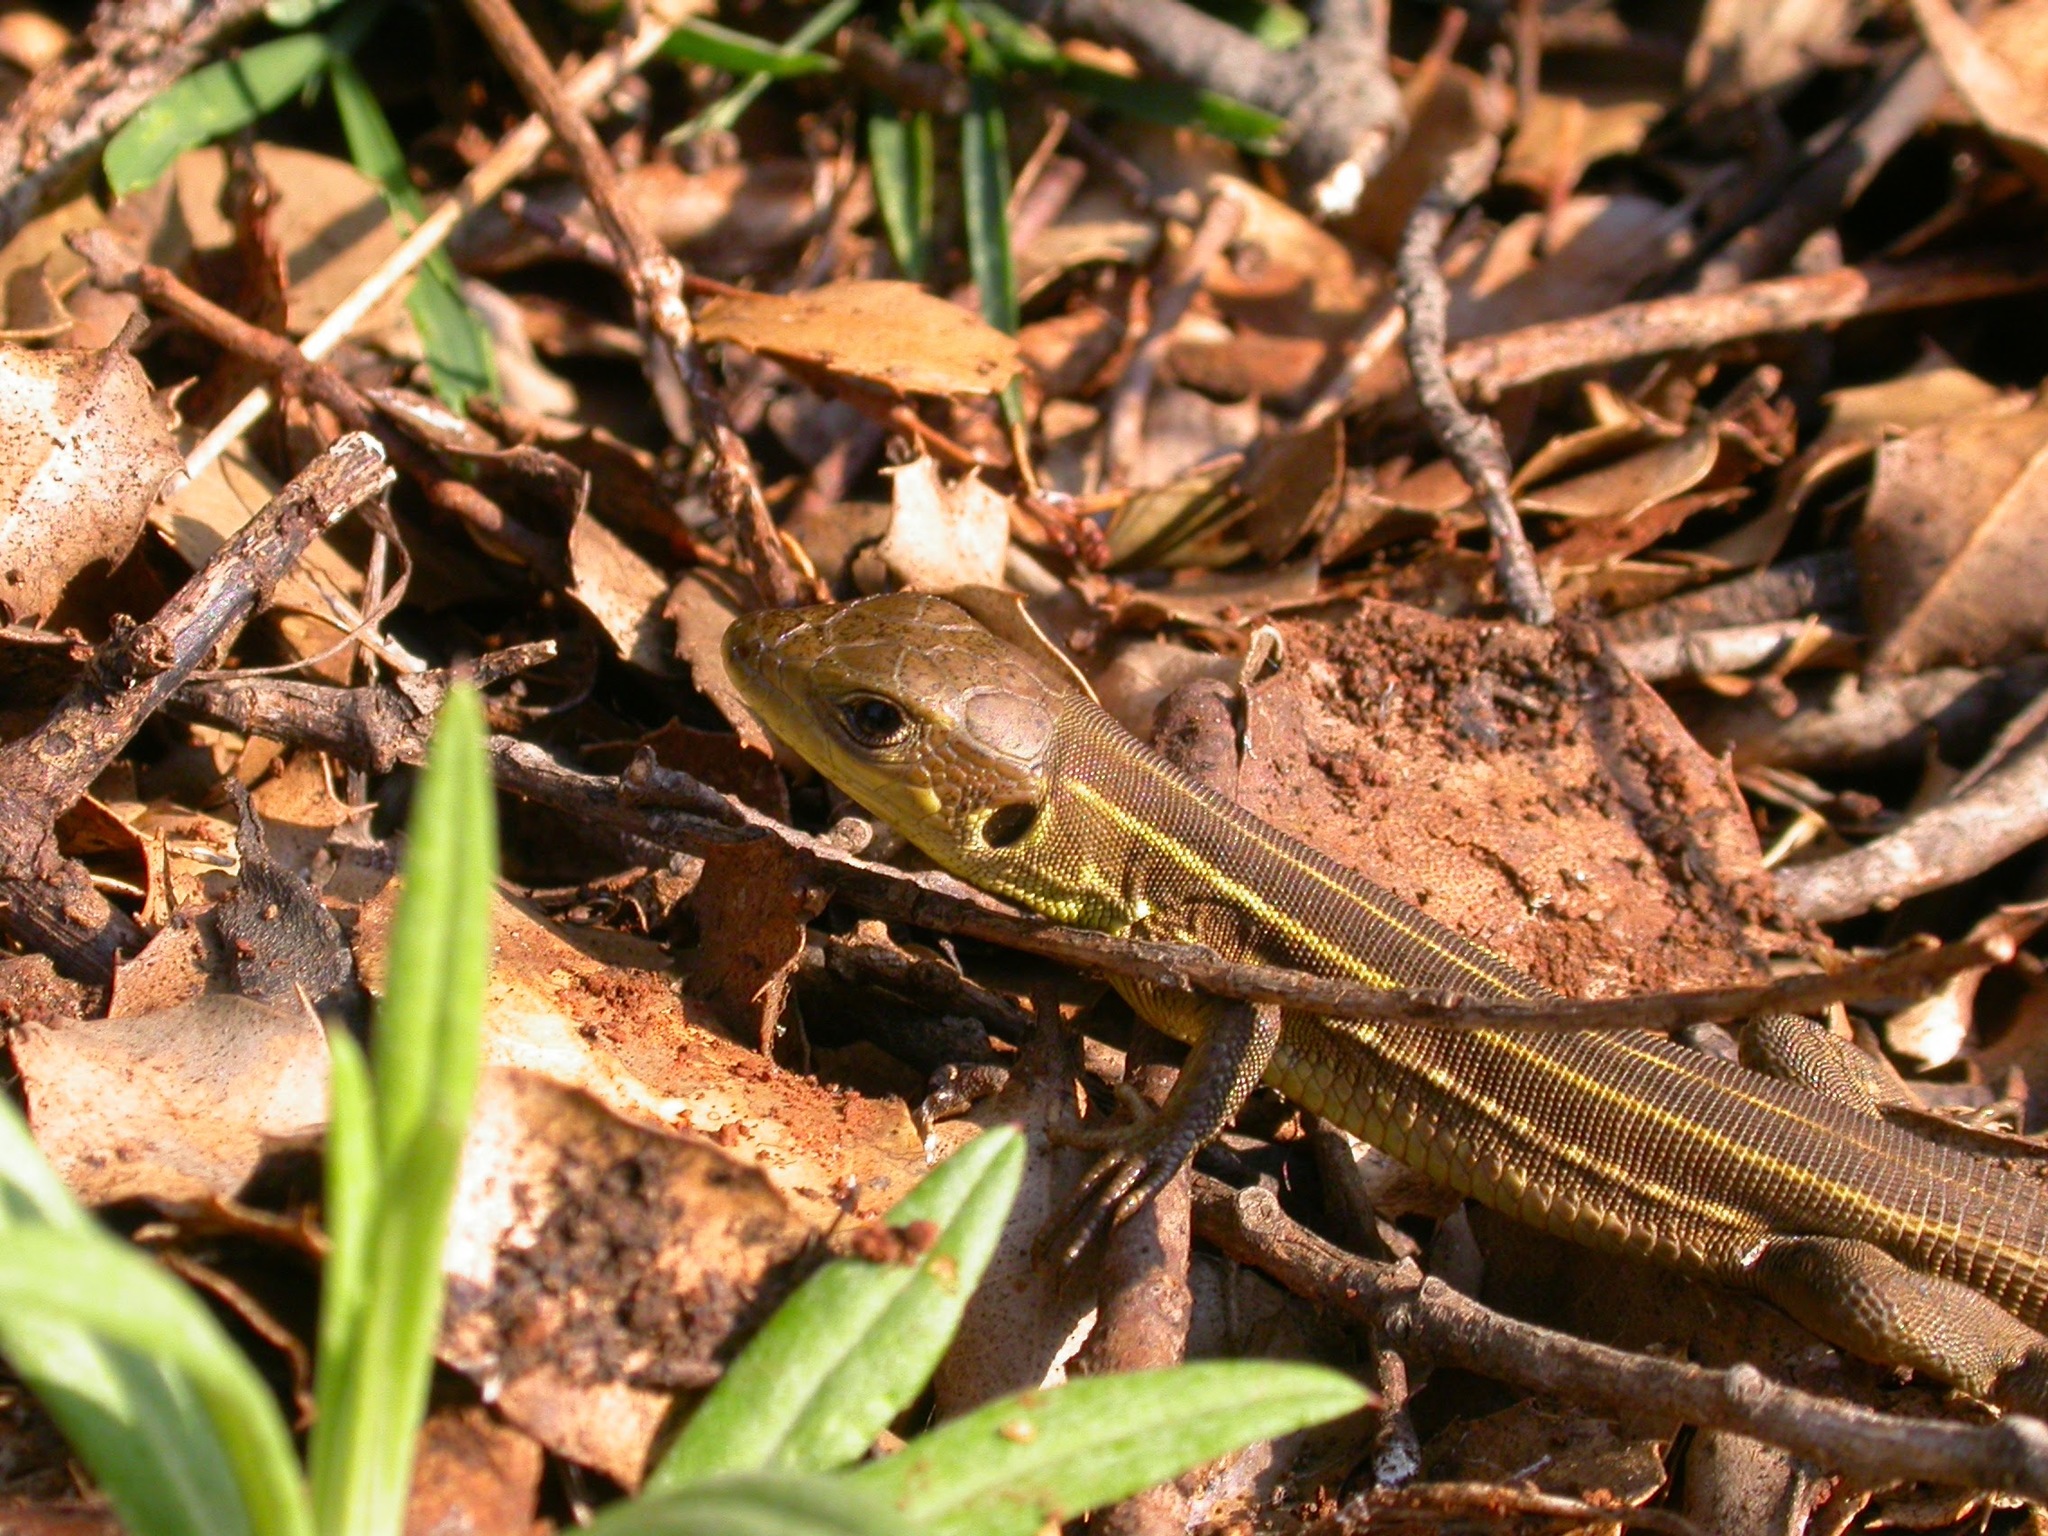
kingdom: Animalia
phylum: Chordata
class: Squamata
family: Lacertidae
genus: Lacerta
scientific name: Lacerta trilineata
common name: Balkan green lizard
